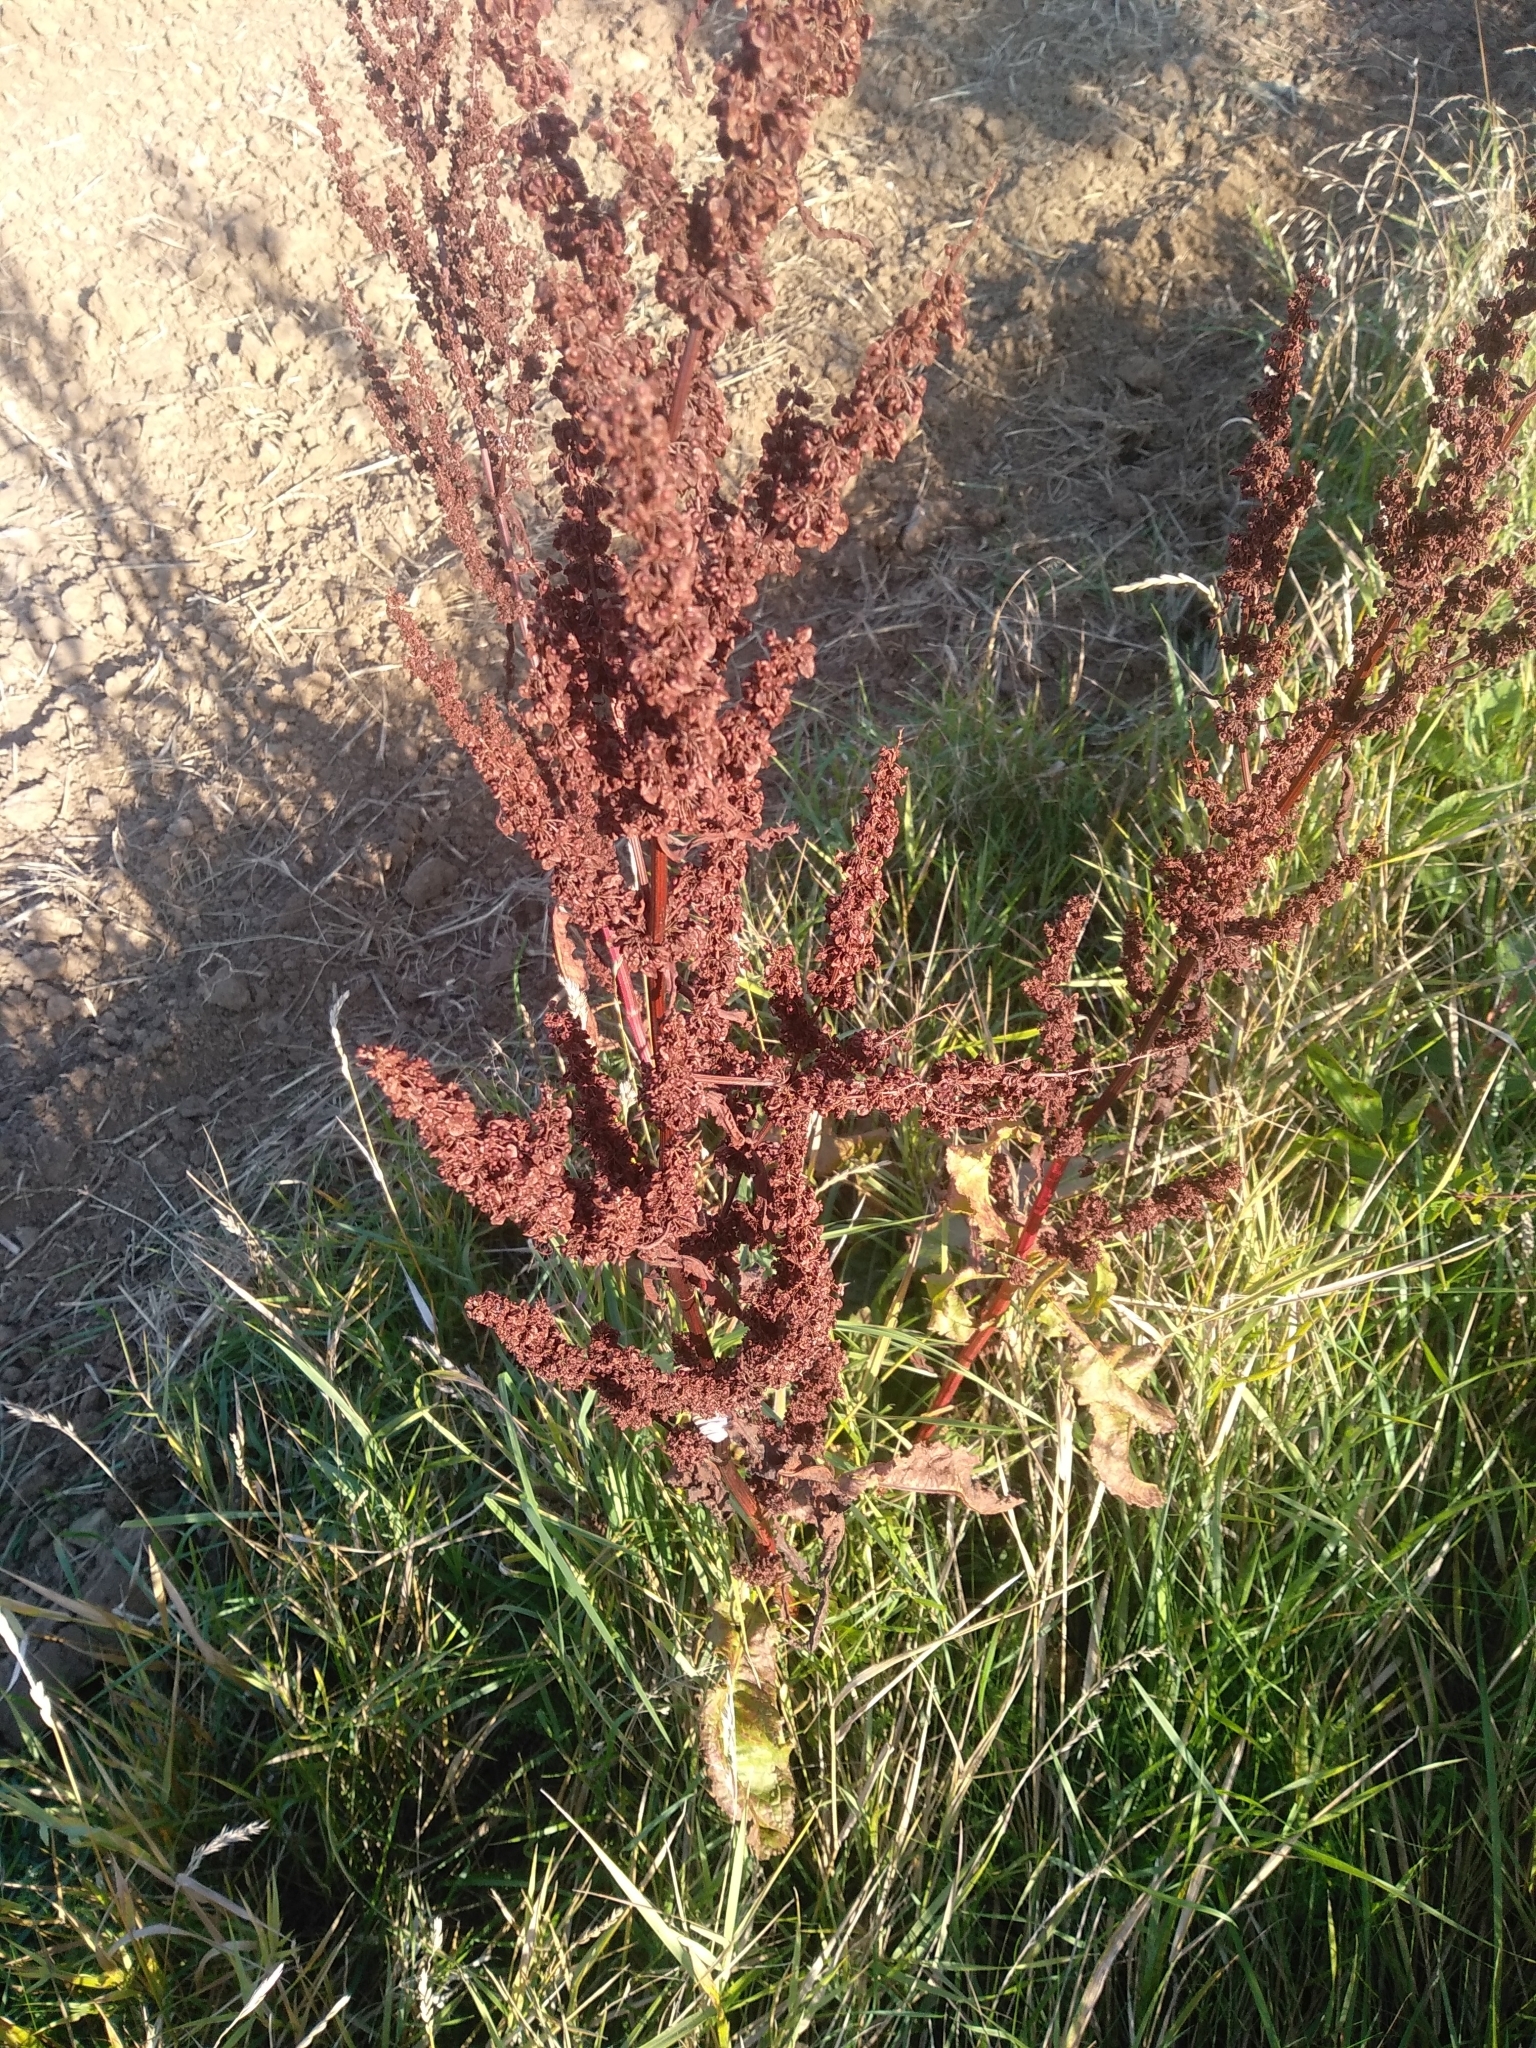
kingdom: Plantae
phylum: Tracheophyta
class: Magnoliopsida
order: Caryophyllales
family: Polygonaceae
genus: Rumex
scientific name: Rumex crispus
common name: Curled dock
